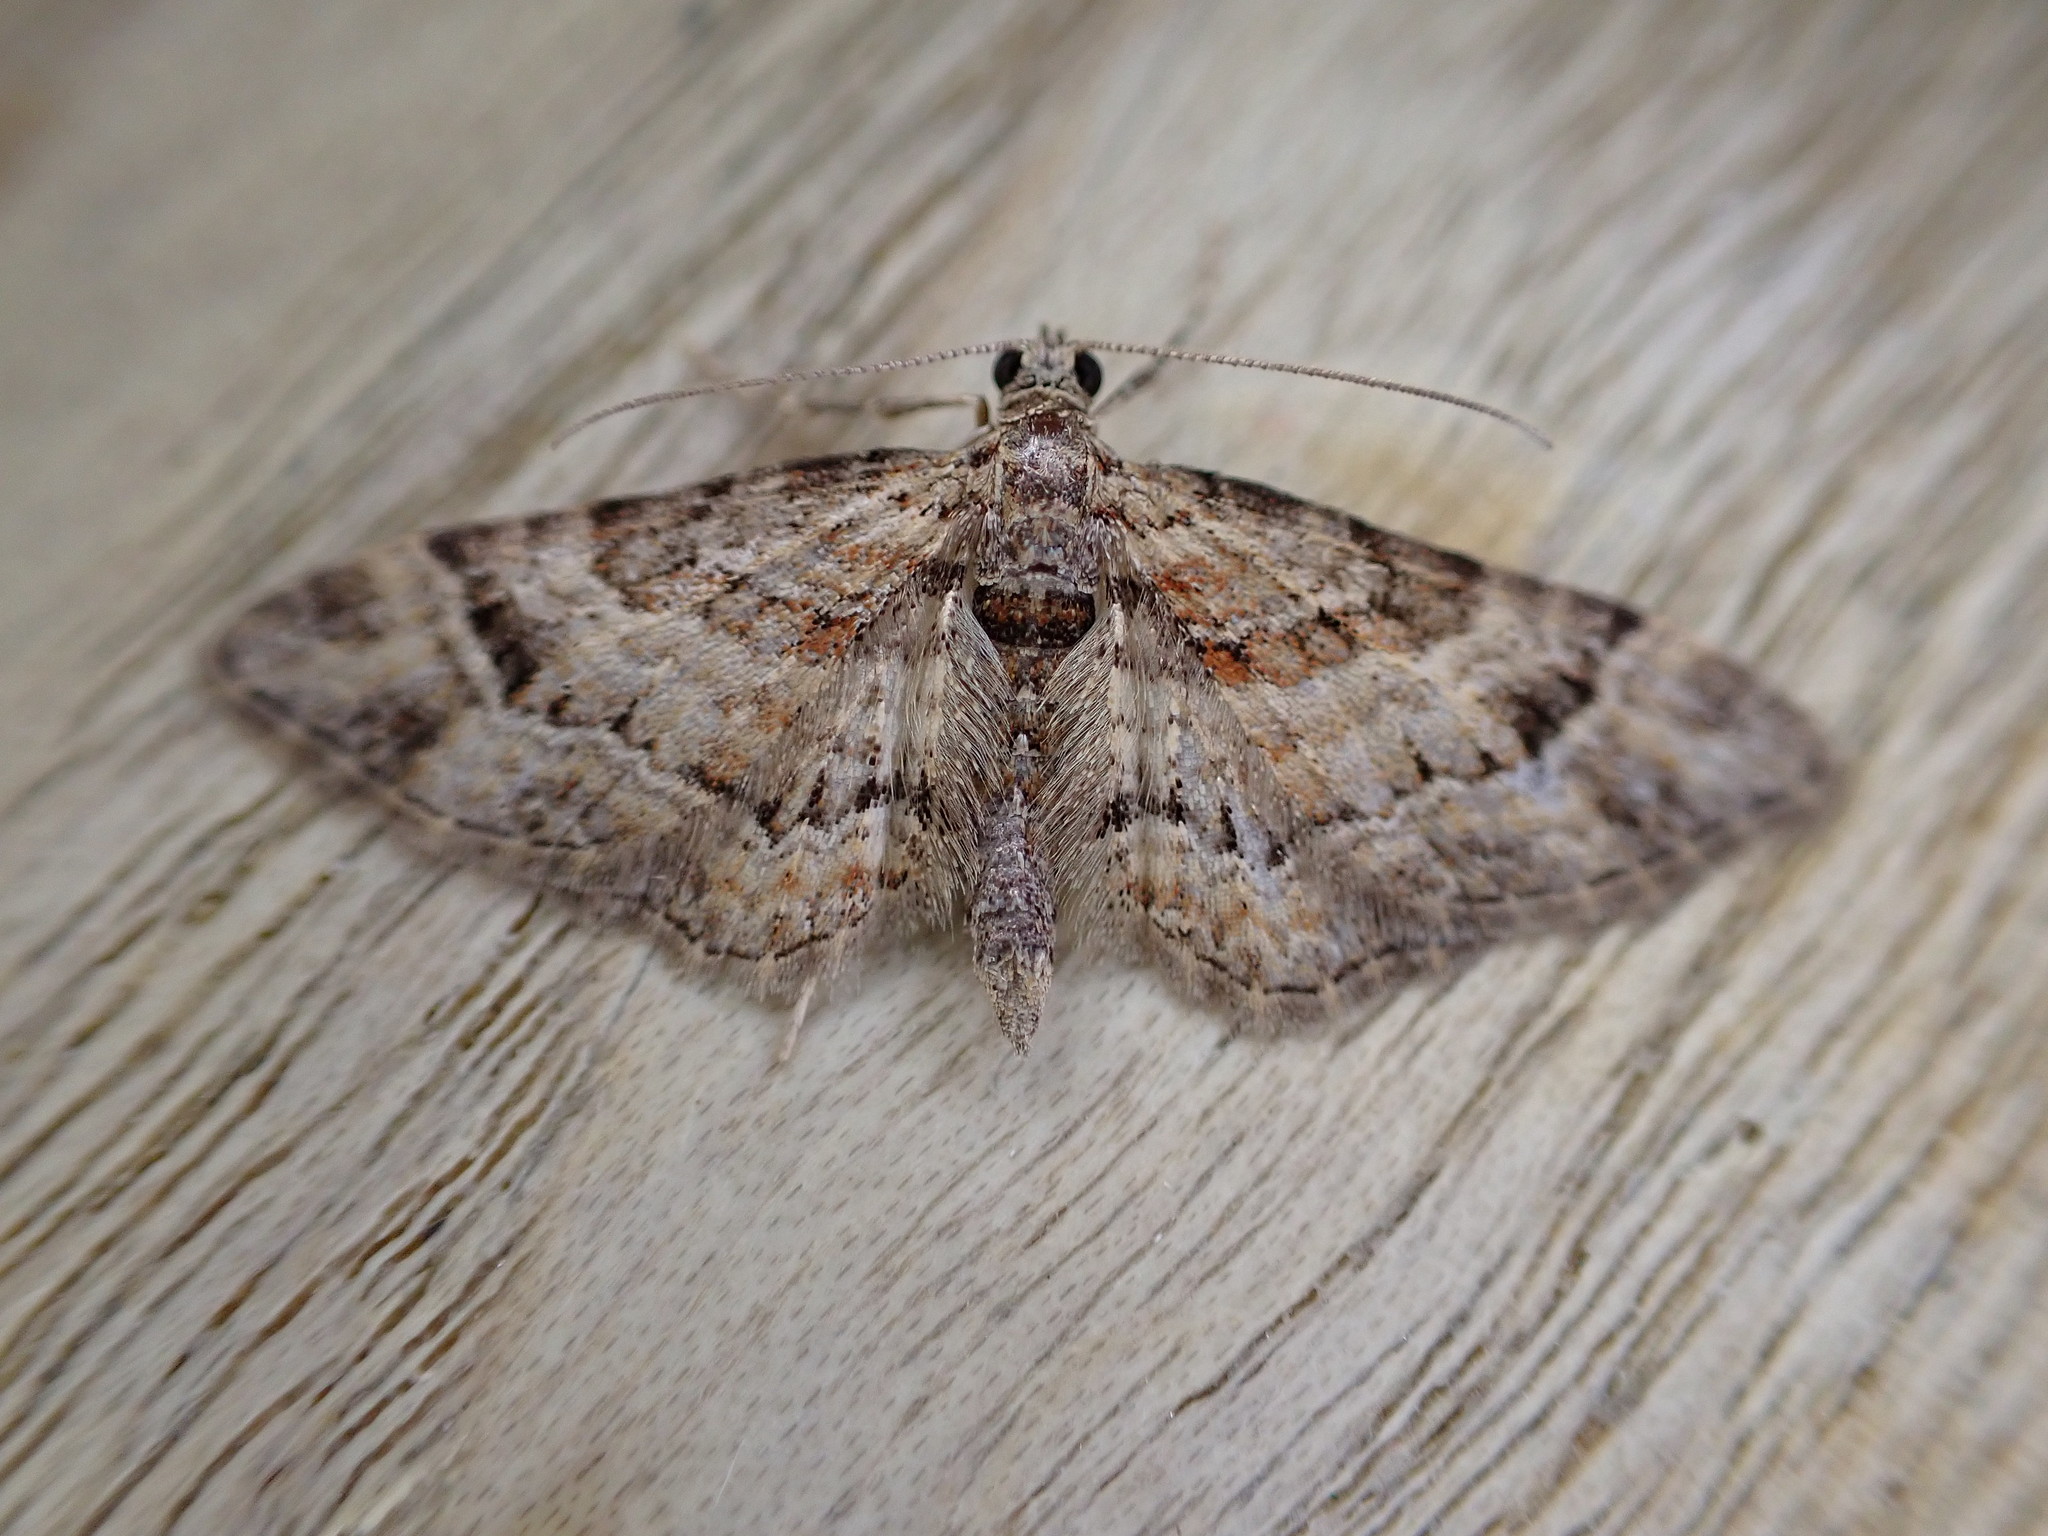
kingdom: Animalia
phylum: Arthropoda
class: Insecta
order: Lepidoptera
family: Geometridae
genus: Gymnoscelis
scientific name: Gymnoscelis rufifasciata
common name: Double-striped pug
